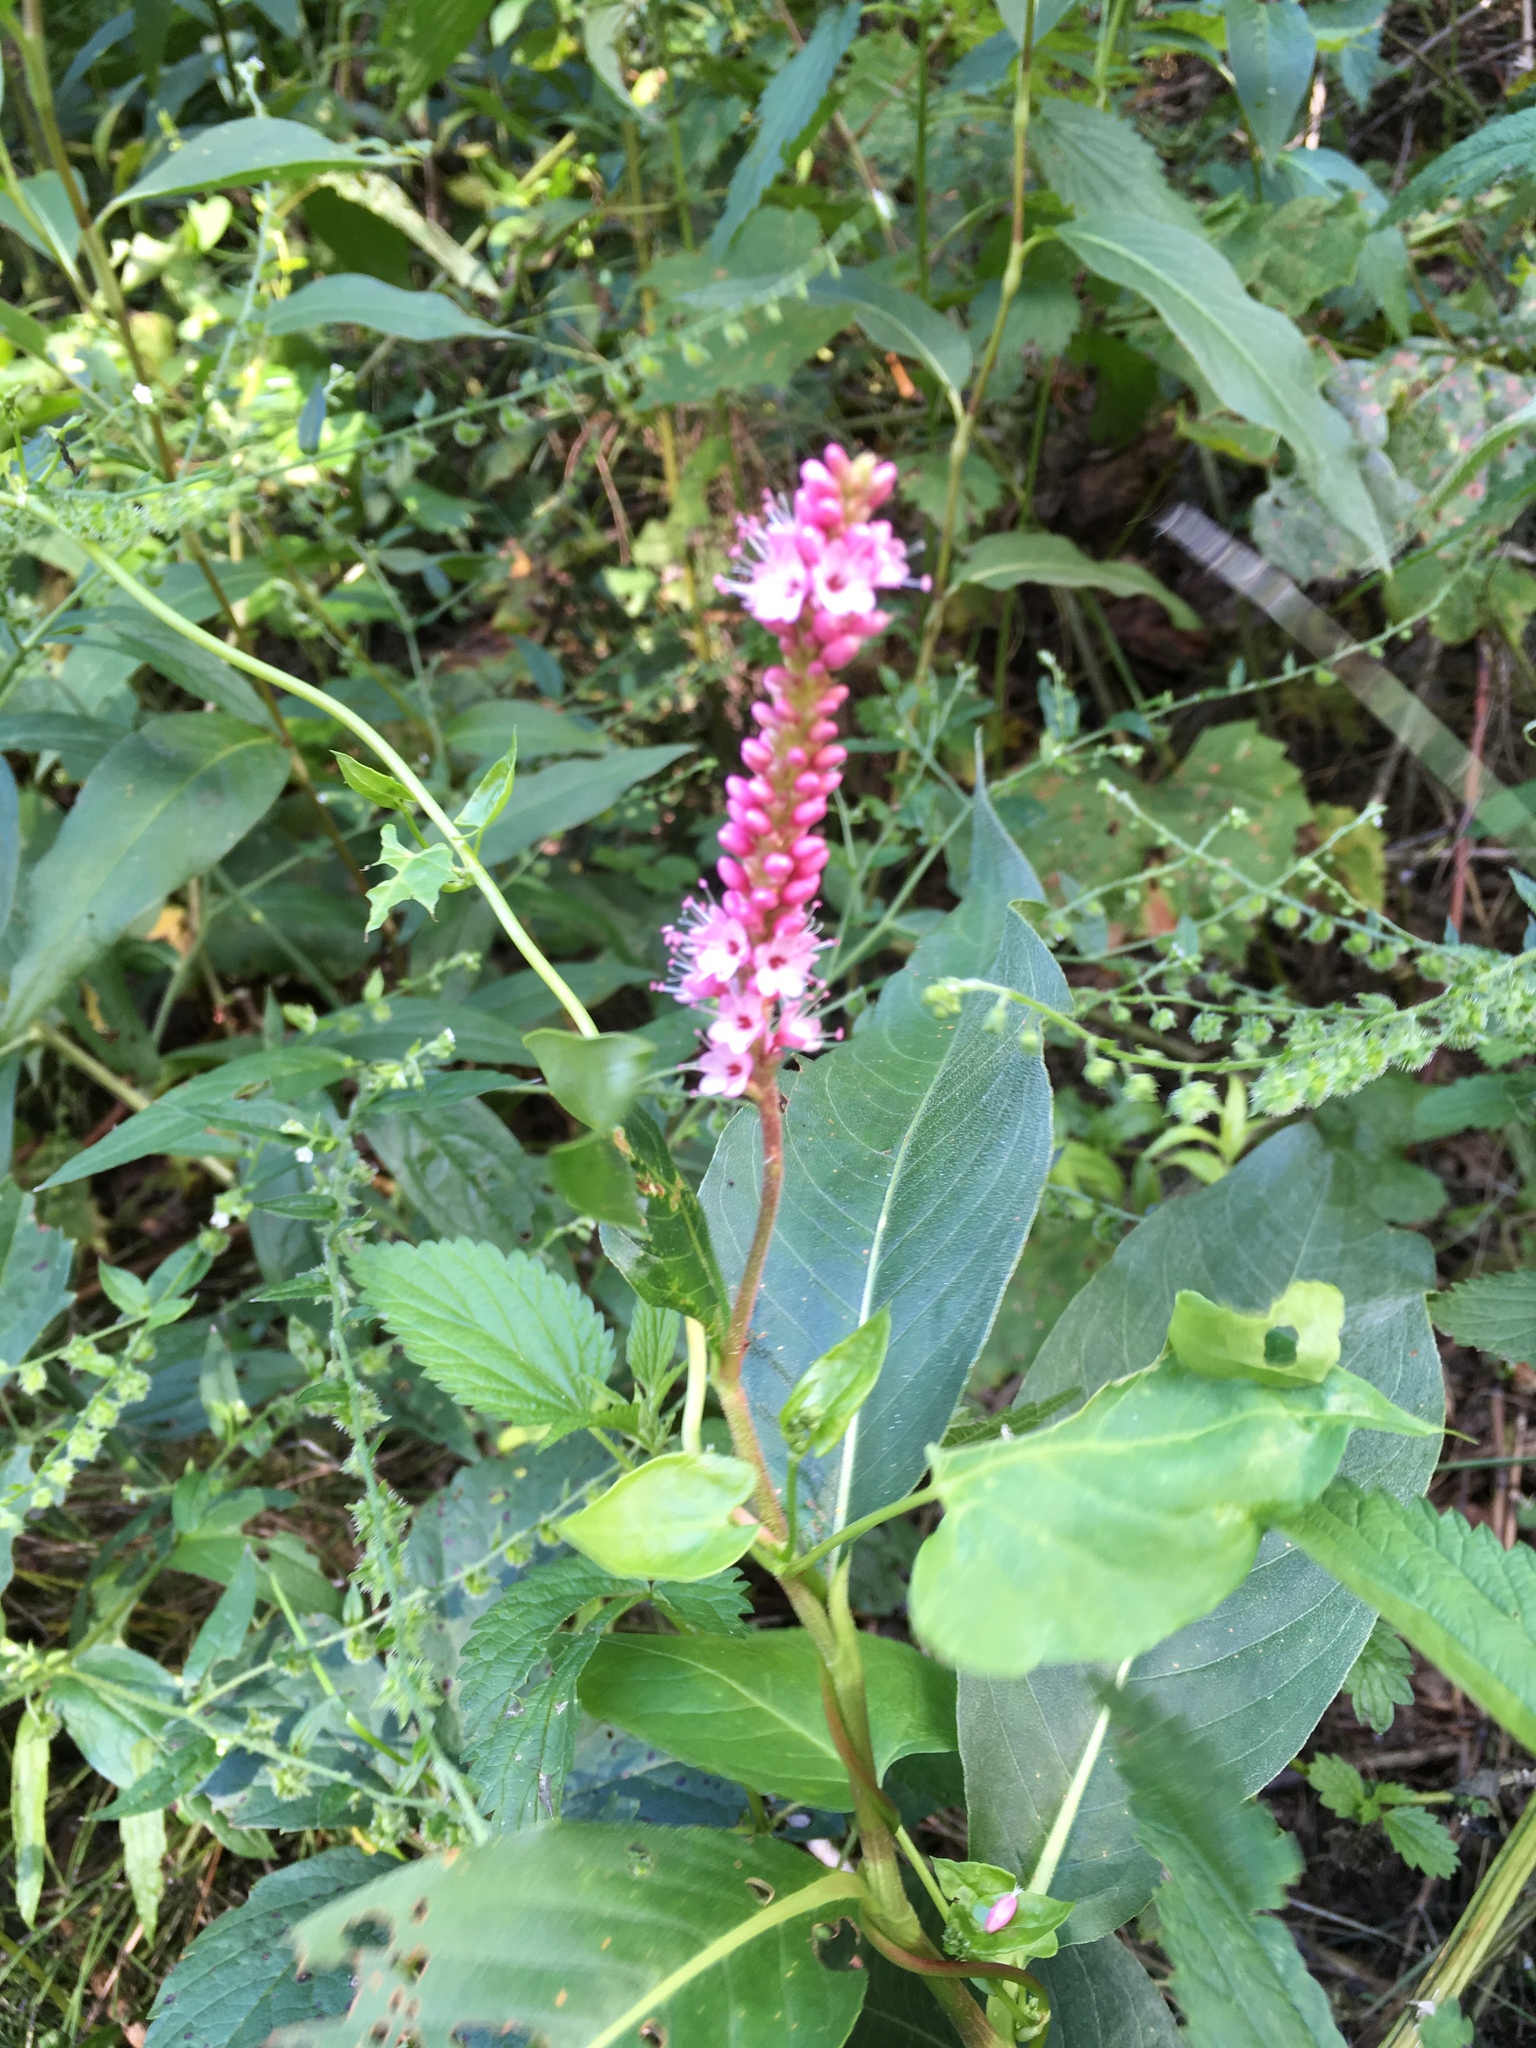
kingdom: Plantae
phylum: Tracheophyta
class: Magnoliopsida
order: Caryophyllales
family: Polygonaceae
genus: Persicaria
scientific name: Persicaria amphibia
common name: Amphibious bistort
